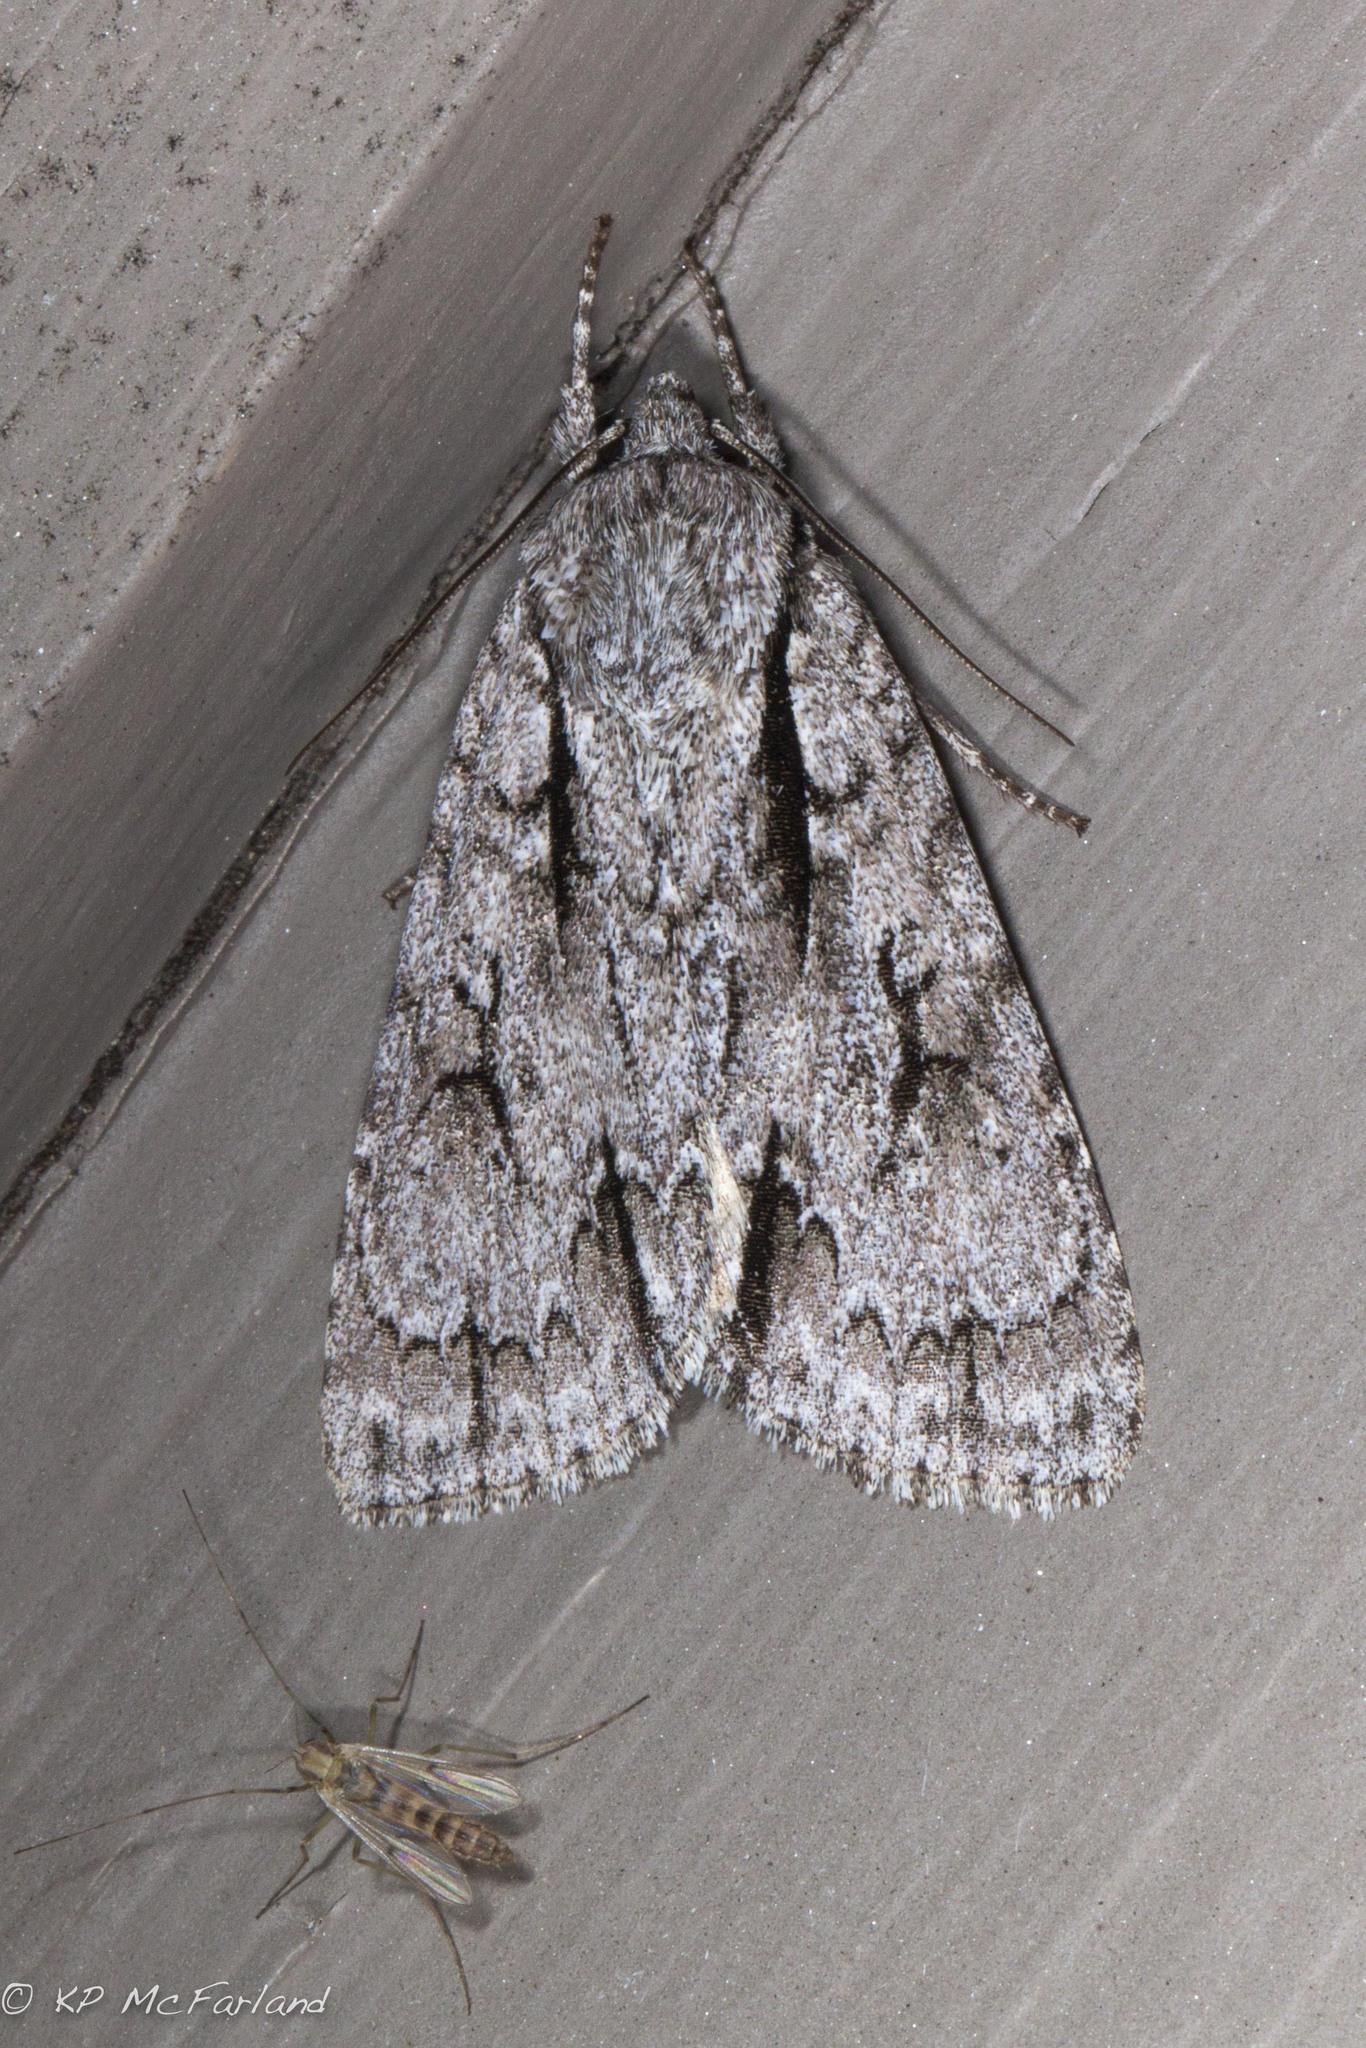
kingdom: Animalia
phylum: Arthropoda
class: Insecta
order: Lepidoptera
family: Noctuidae
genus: Acronicta
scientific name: Acronicta lobeliae
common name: Greater oak dagger
